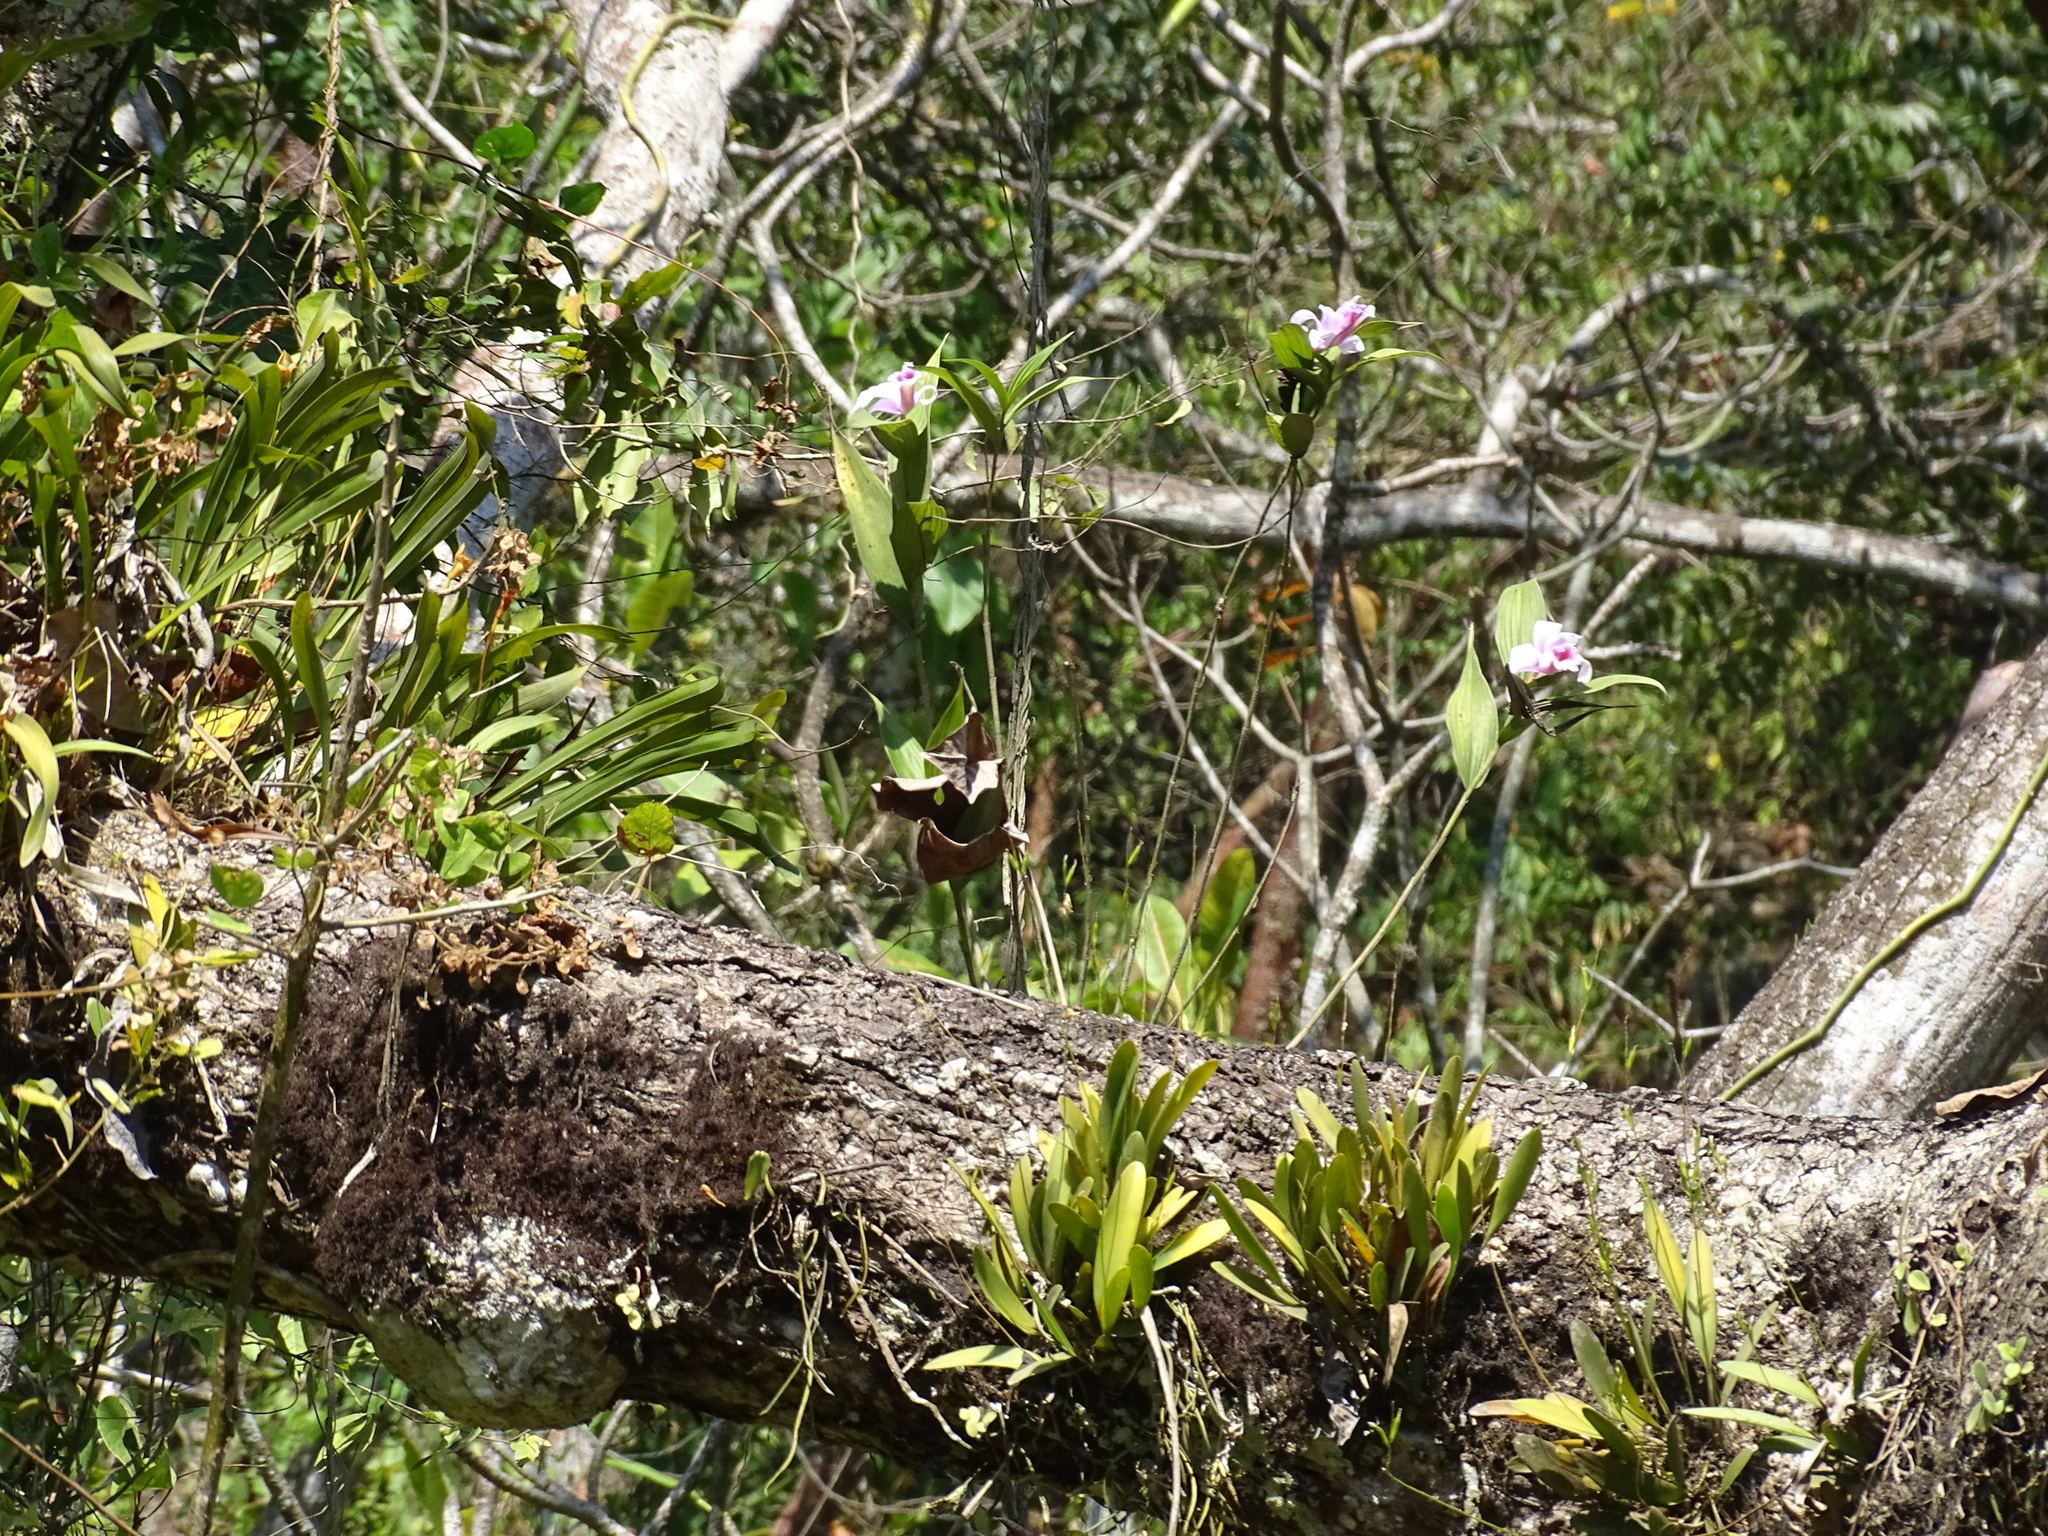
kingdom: Plantae
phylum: Tracheophyta
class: Liliopsida
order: Asparagales
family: Orchidaceae
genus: Sobralia
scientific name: Sobralia decora
